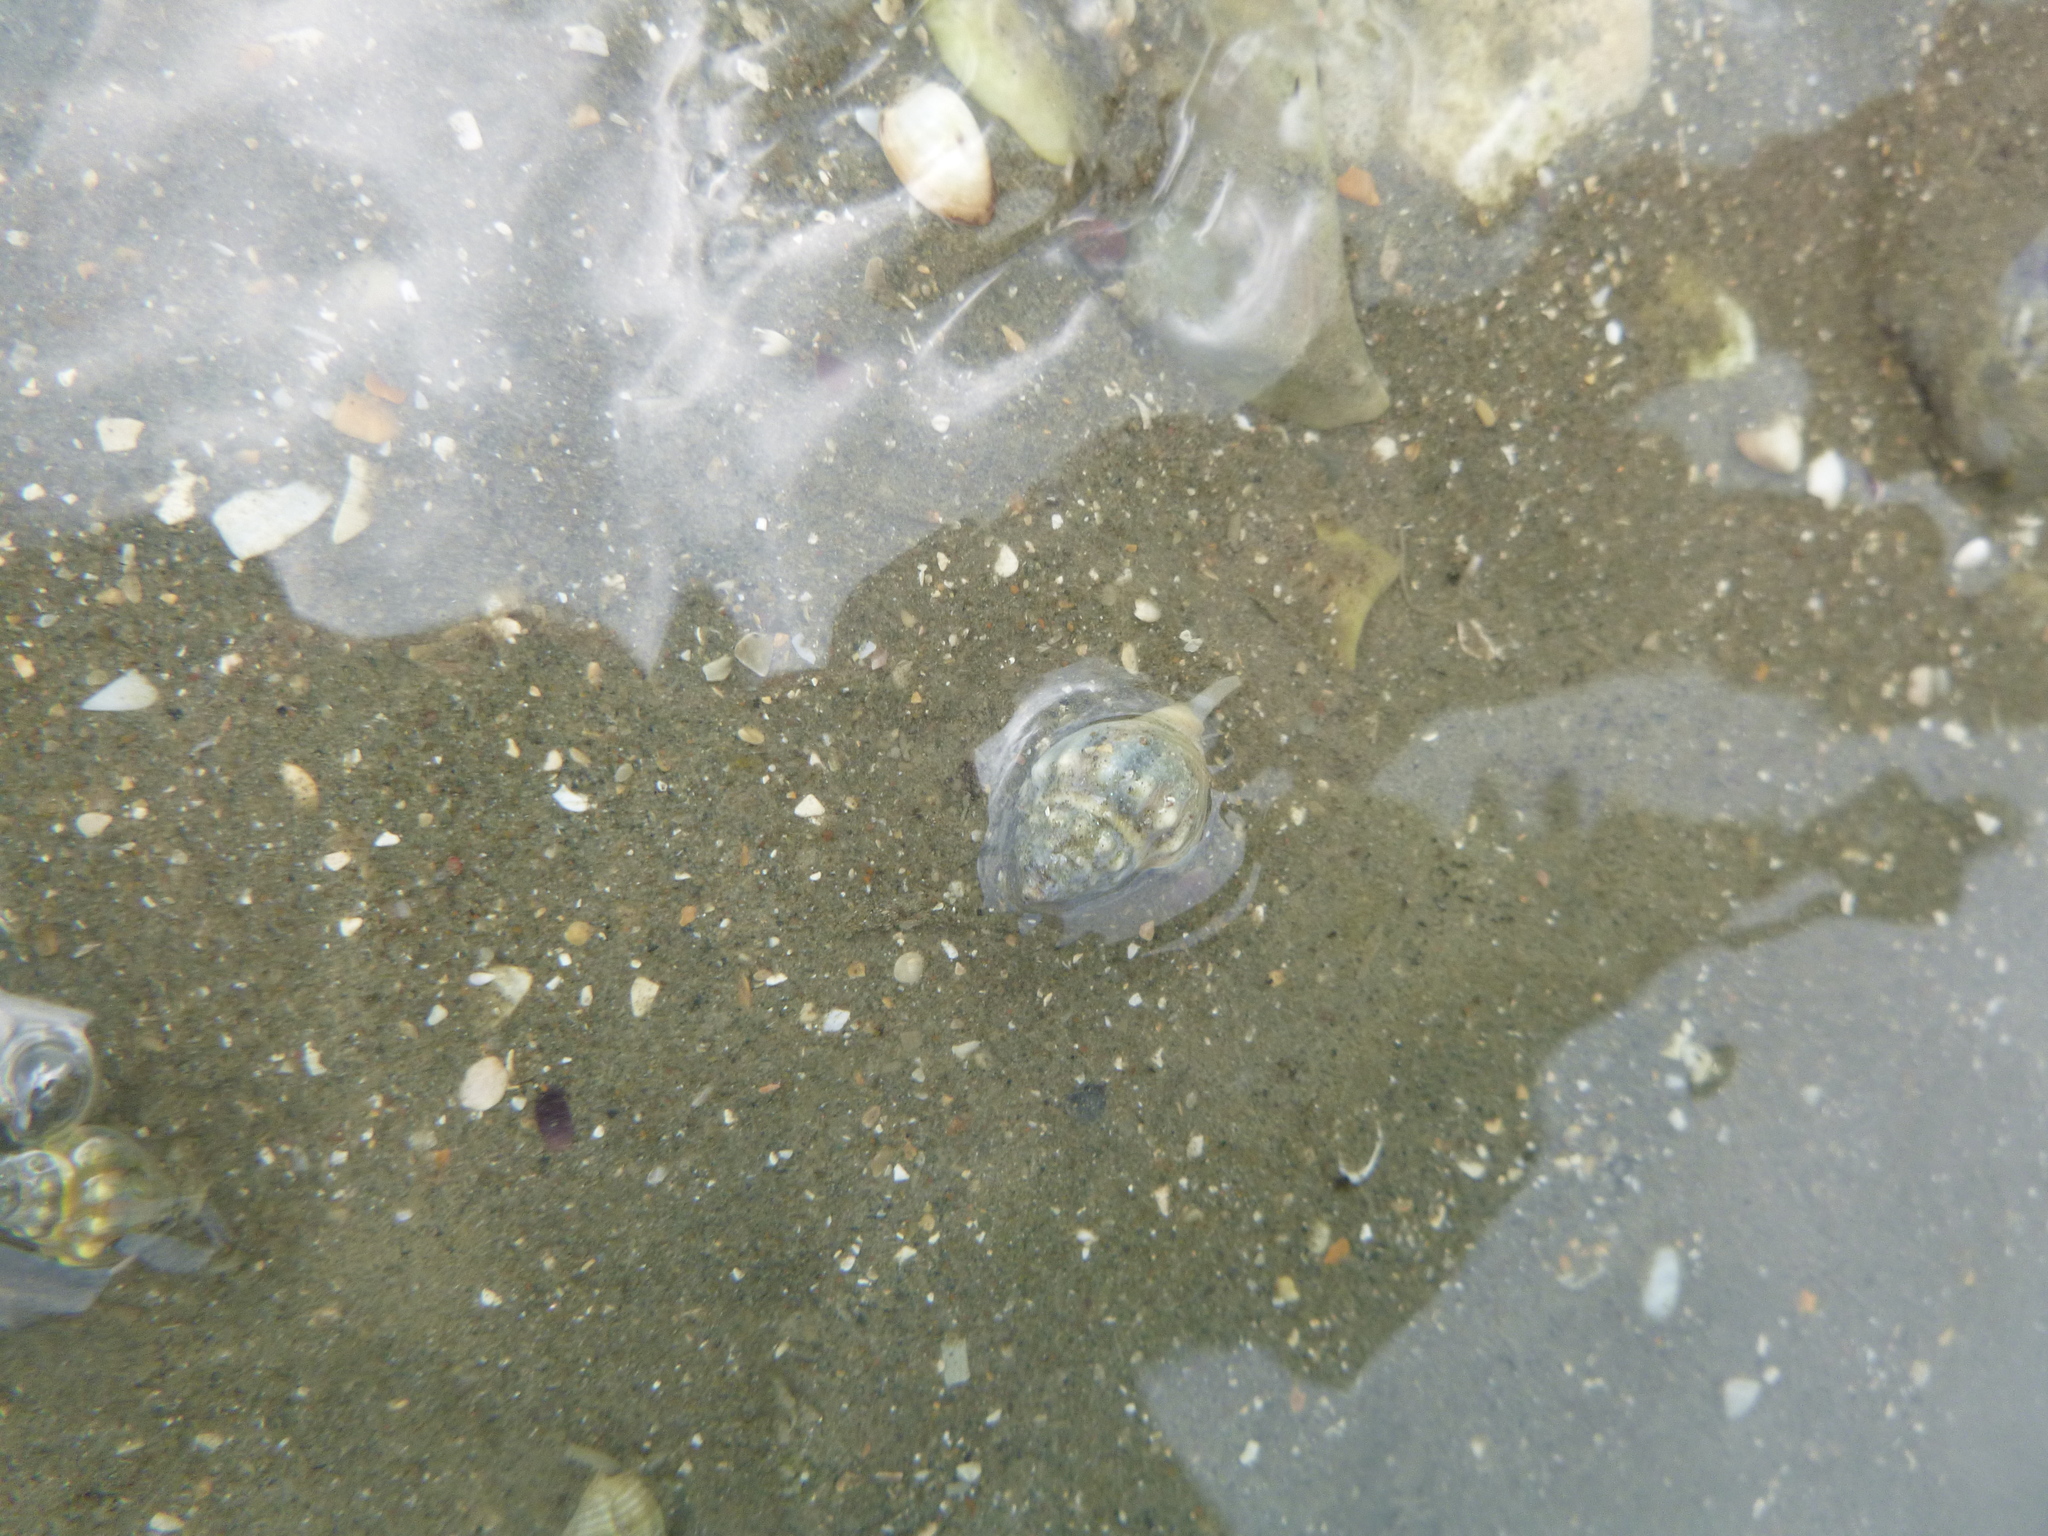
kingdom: Animalia
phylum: Mollusca
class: Gastropoda
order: Neogastropoda
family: Cominellidae
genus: Cominella
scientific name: Cominella glandiformis
